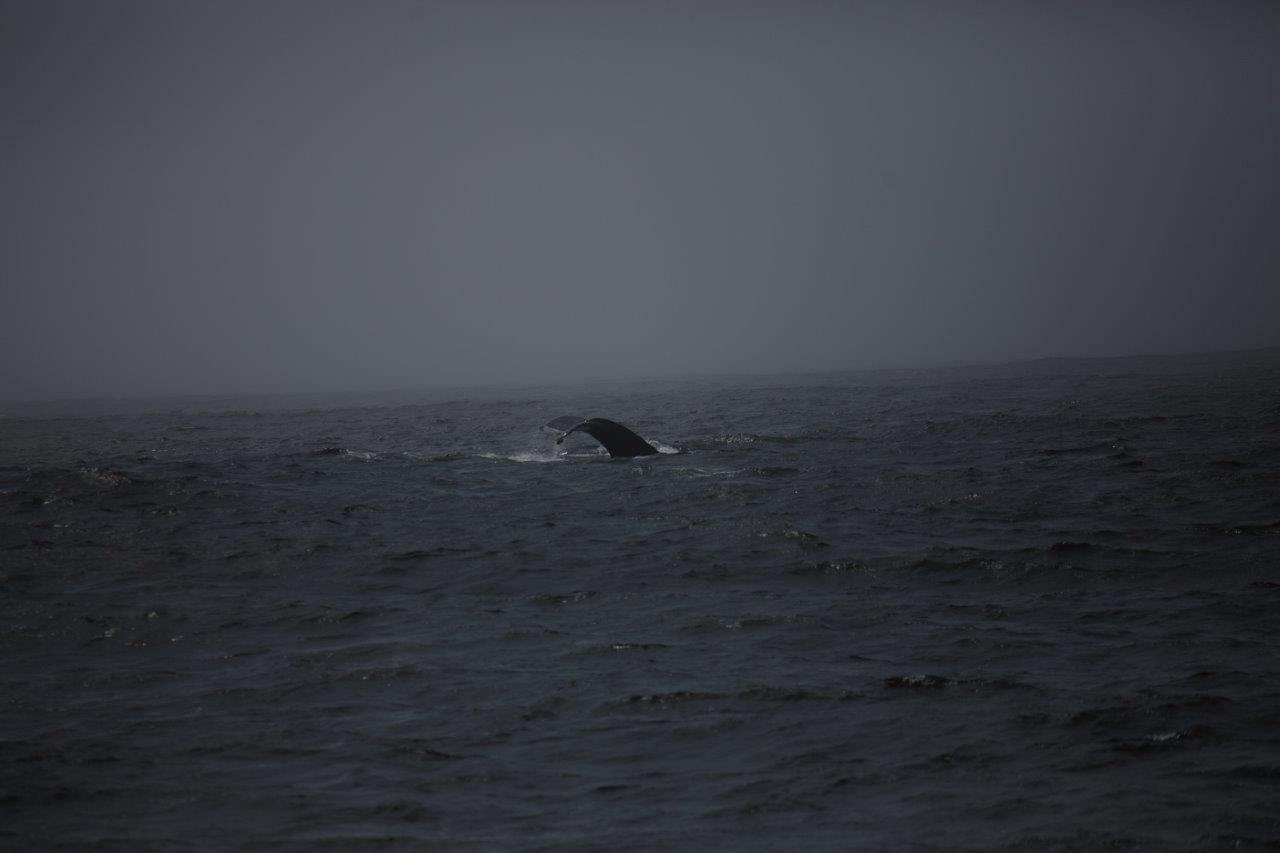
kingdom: Animalia
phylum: Chordata
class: Mammalia
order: Cetacea
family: Balaenopteridae
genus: Megaptera
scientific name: Megaptera novaeangliae
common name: Humpback whale
